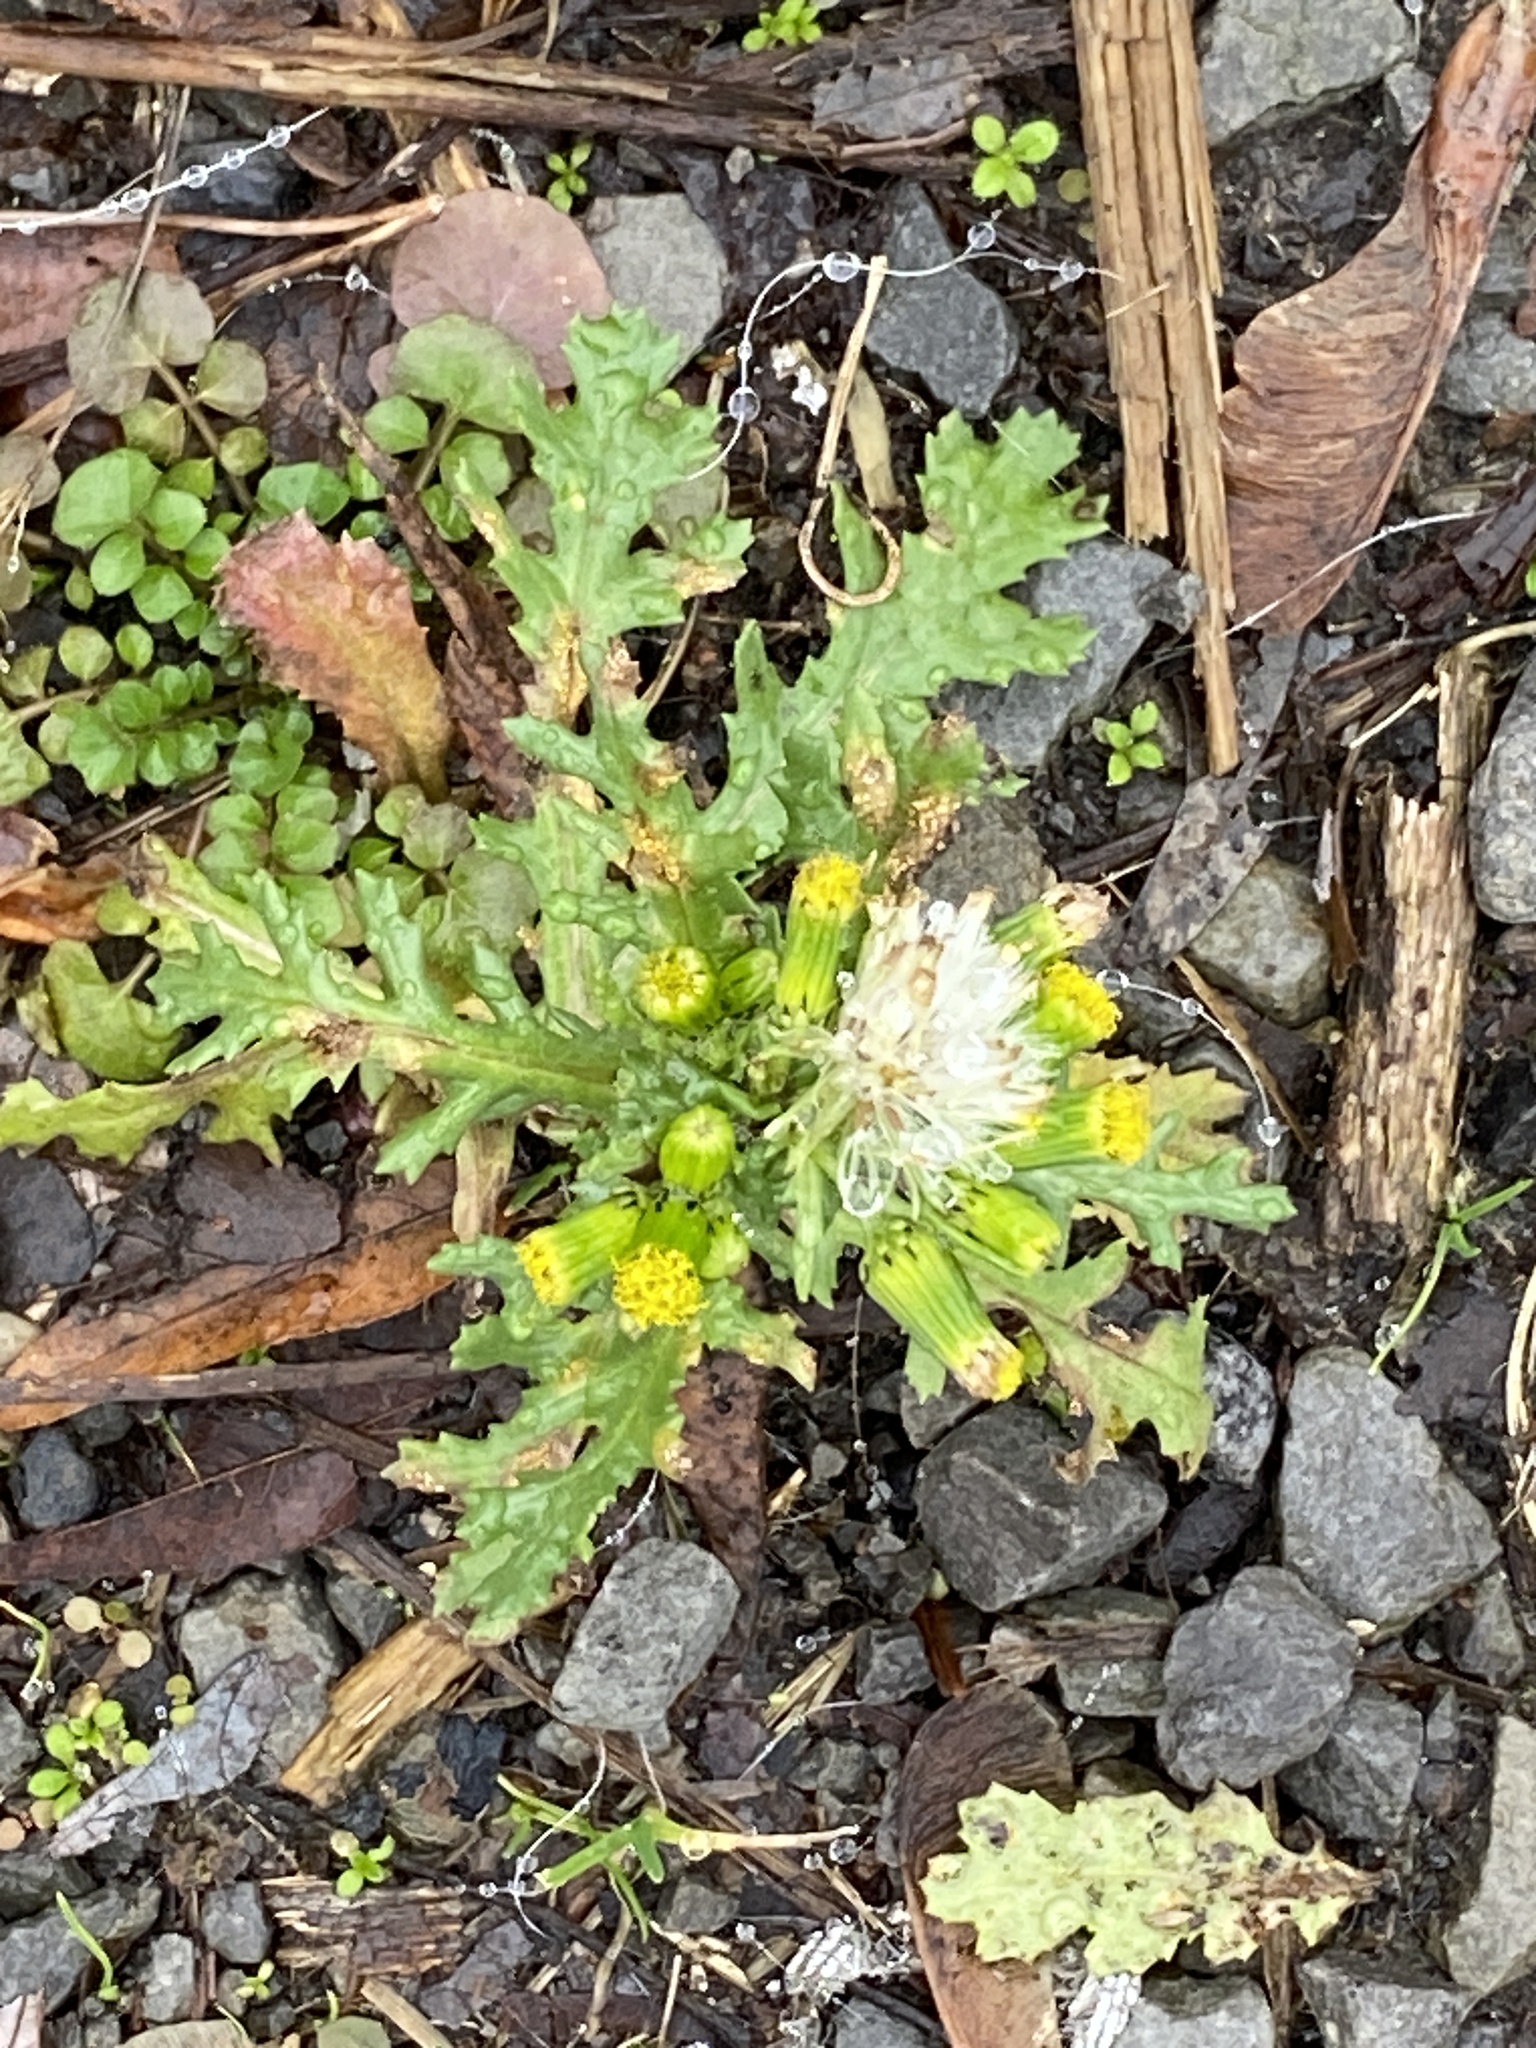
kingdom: Plantae
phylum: Tracheophyta
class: Magnoliopsida
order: Asterales
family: Asteraceae
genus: Senecio
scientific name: Senecio vulgaris
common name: Old-man-in-the-spring
